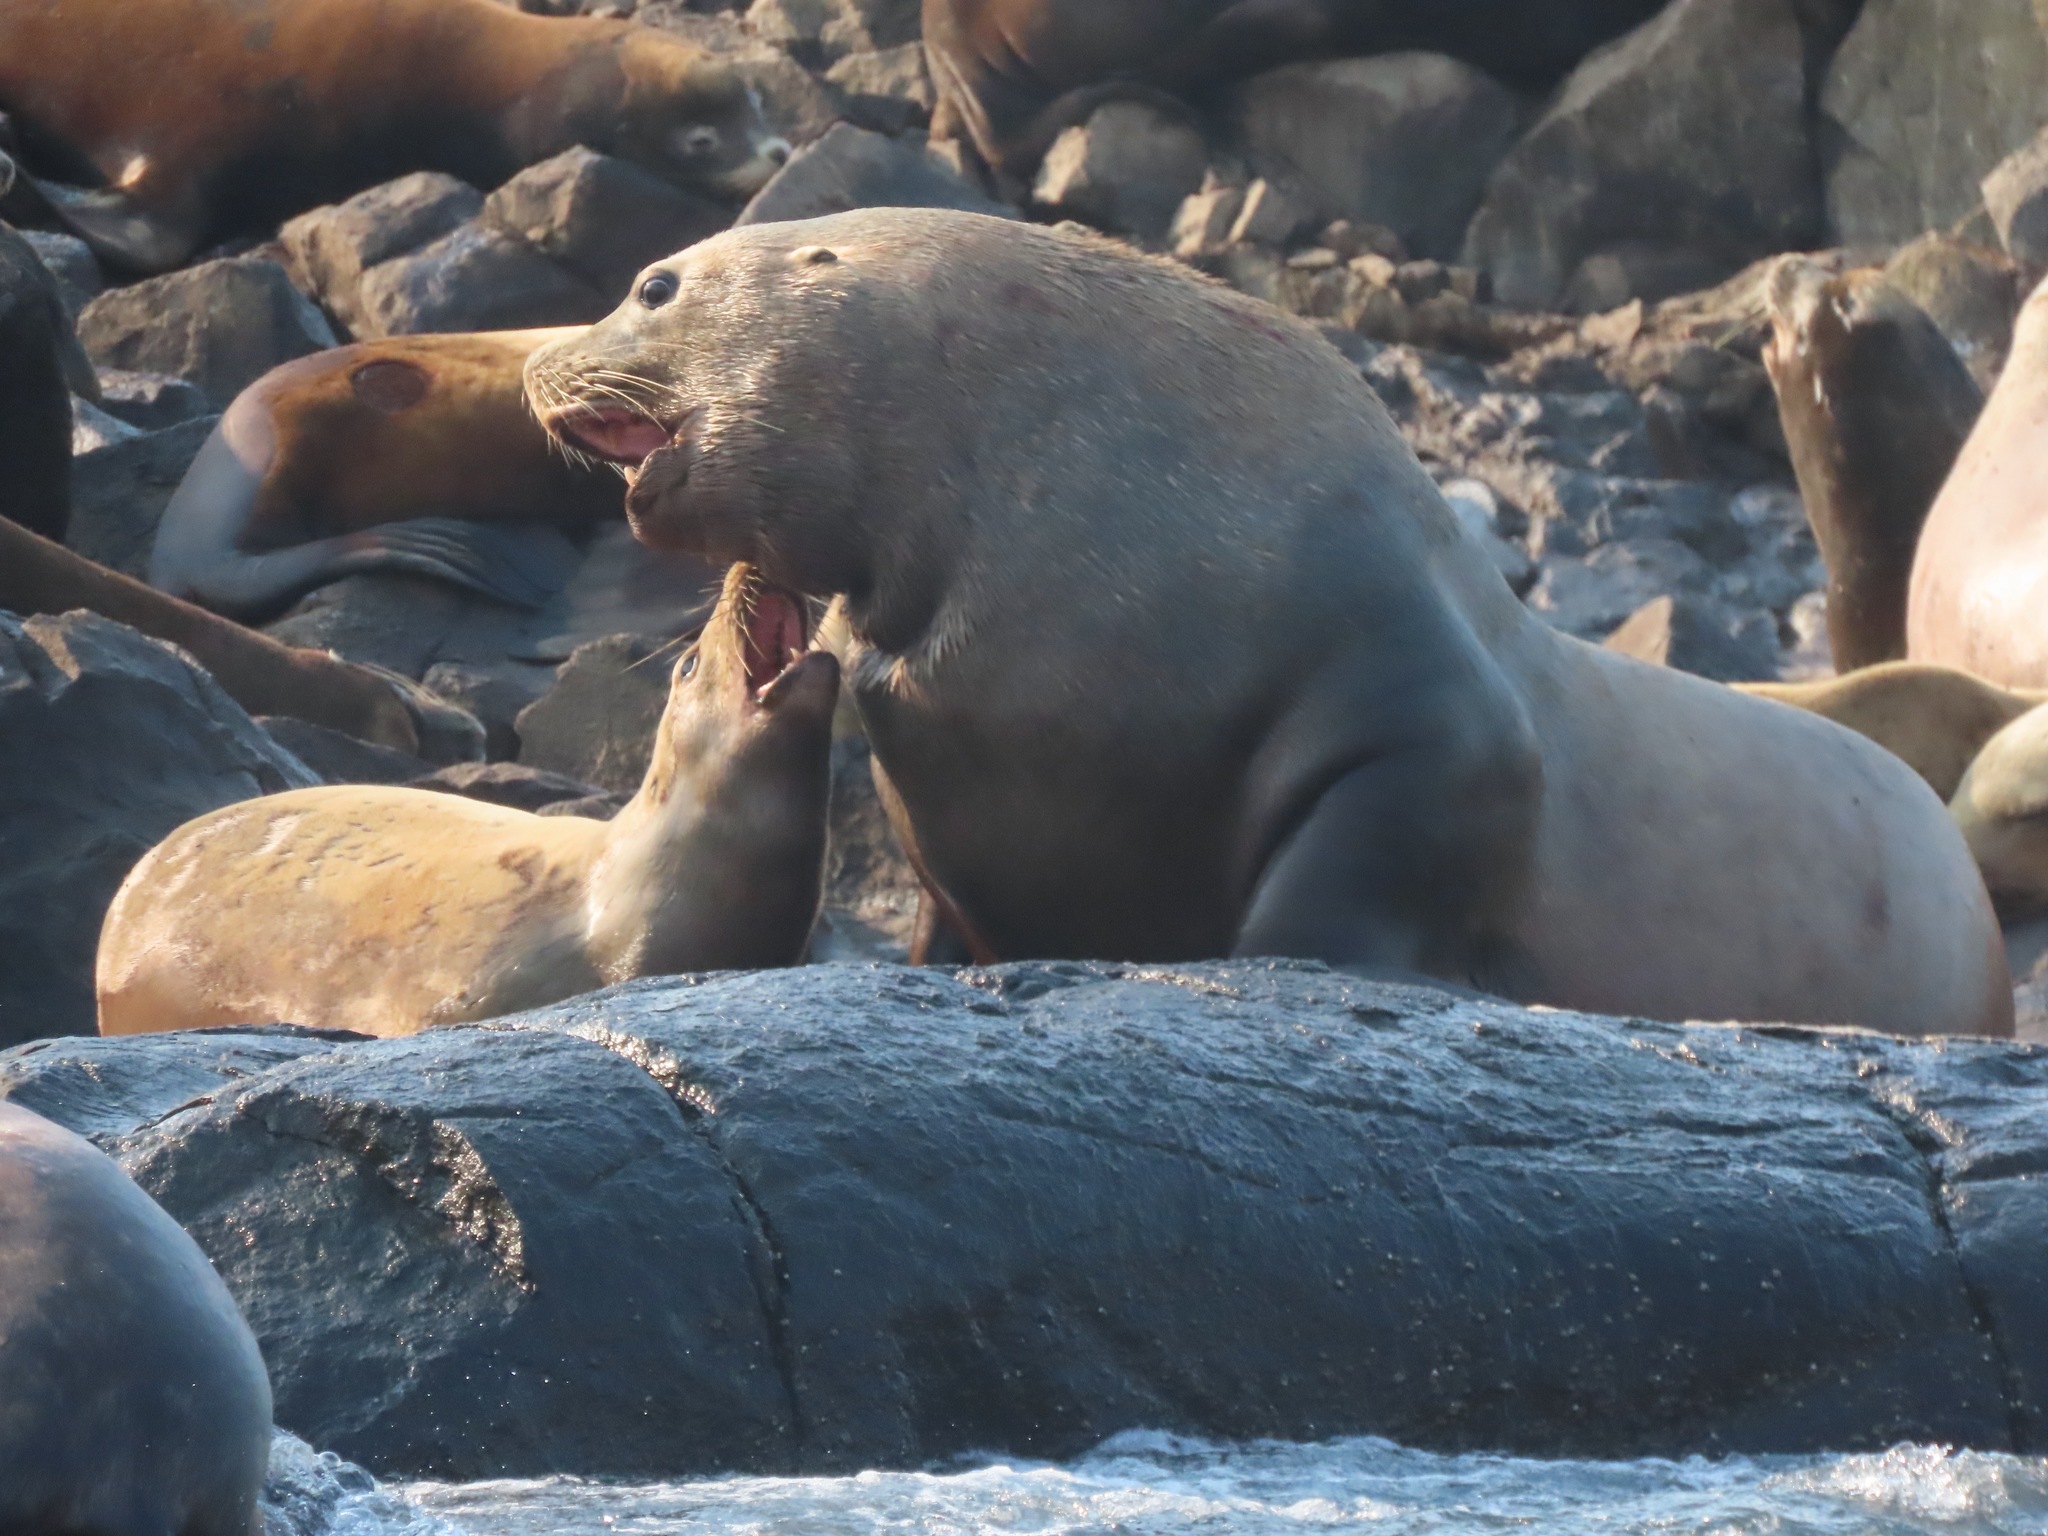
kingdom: Animalia
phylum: Chordata
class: Mammalia
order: Carnivora
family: Otariidae
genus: Eumetopias
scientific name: Eumetopias jubatus
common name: Steller sea lion
